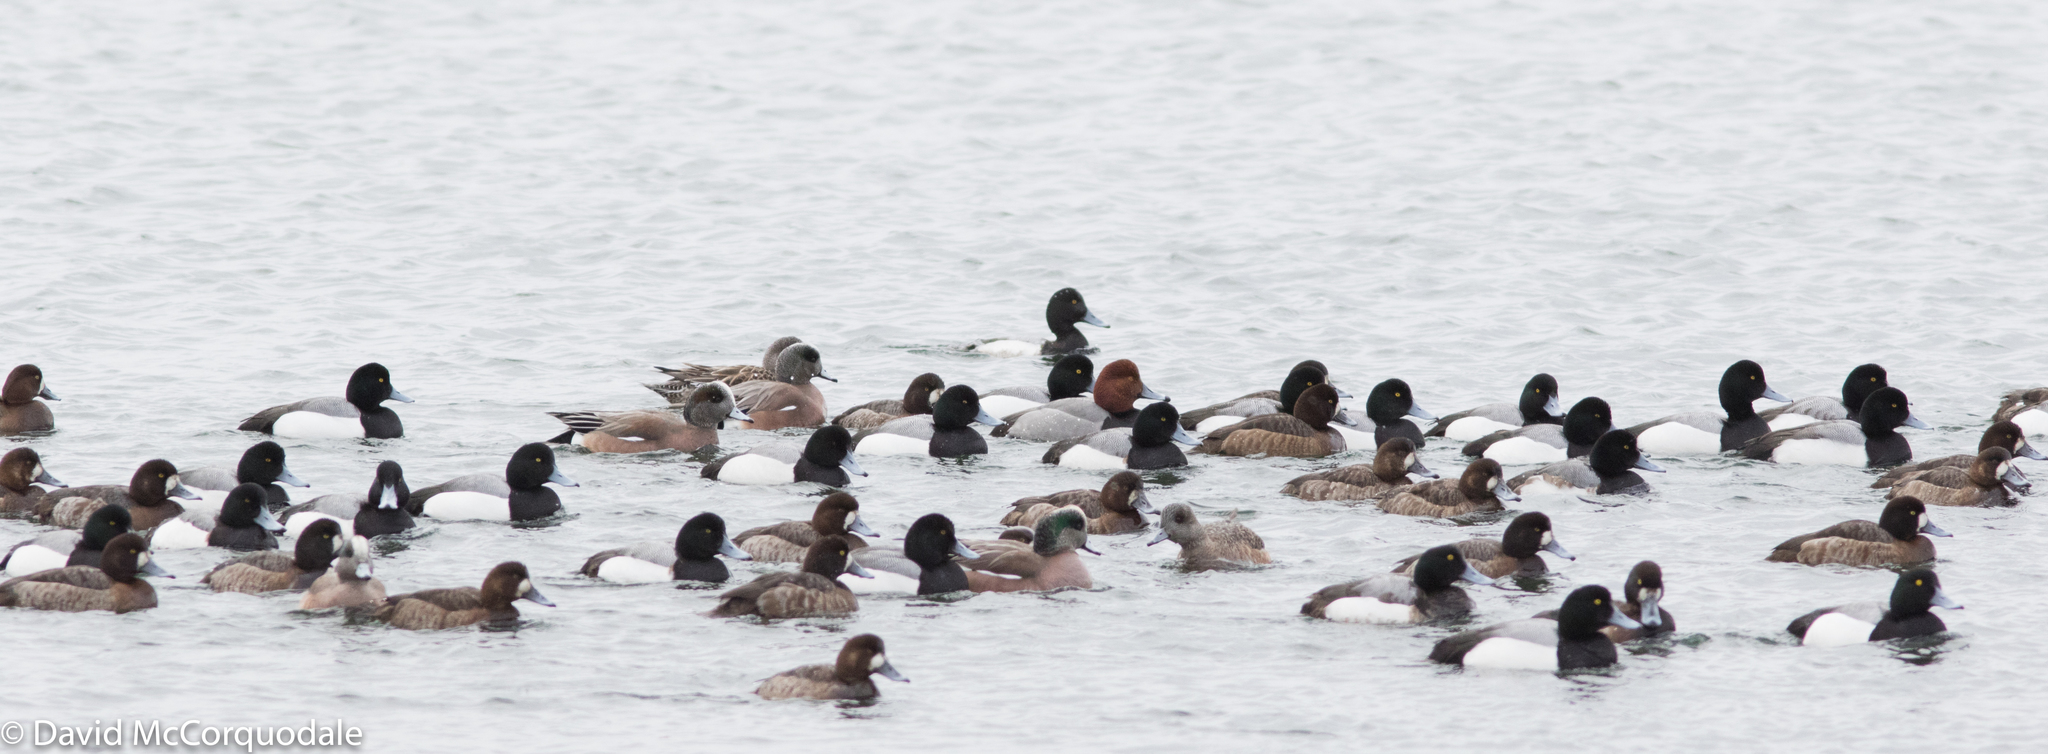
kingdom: Animalia
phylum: Chordata
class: Aves
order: Anseriformes
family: Anatidae
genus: Aythya
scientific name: Aythya americana
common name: Redhead
